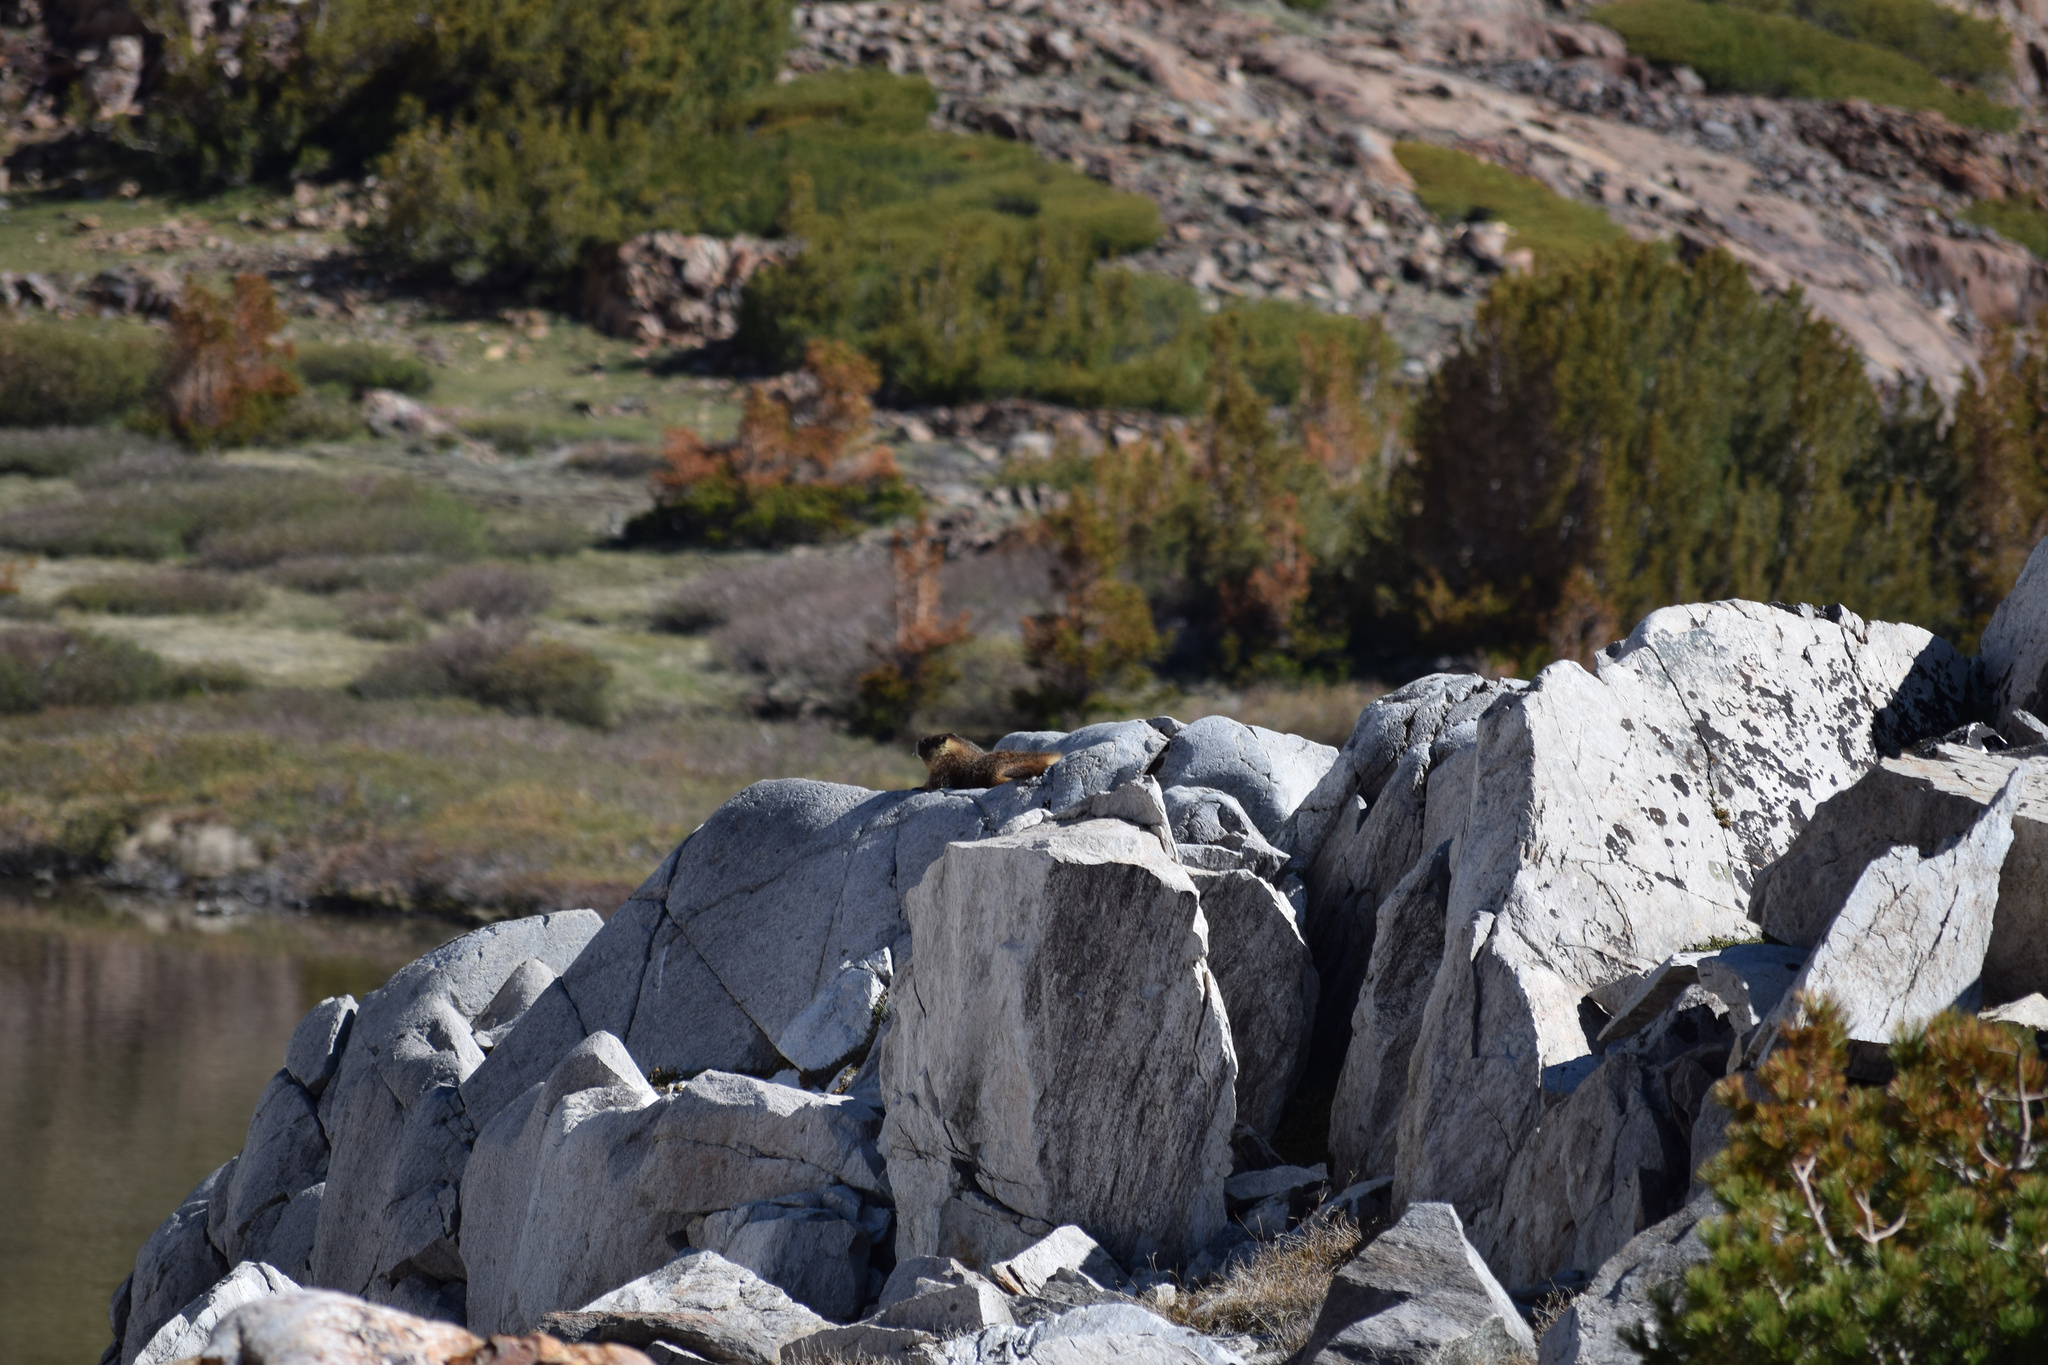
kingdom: Animalia
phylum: Chordata
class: Mammalia
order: Rodentia
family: Sciuridae
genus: Marmota
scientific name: Marmota flaviventris
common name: Yellow-bellied marmot
